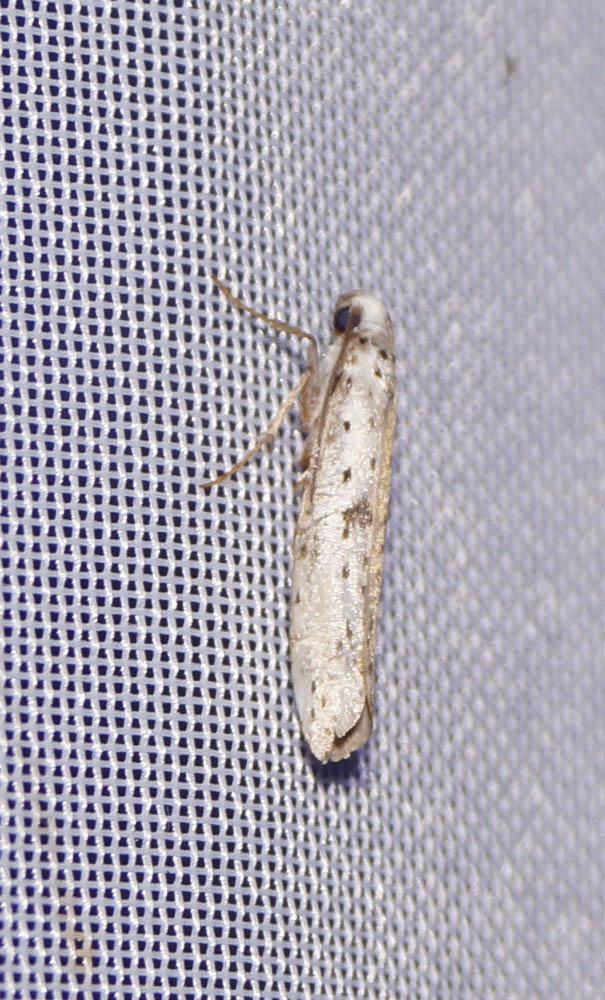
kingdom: Animalia
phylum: Arthropoda
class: Insecta
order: Lepidoptera
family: Yponomeutidae
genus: Yponomeuta
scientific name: Yponomeuta plumbella
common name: Black-tipped ermine
